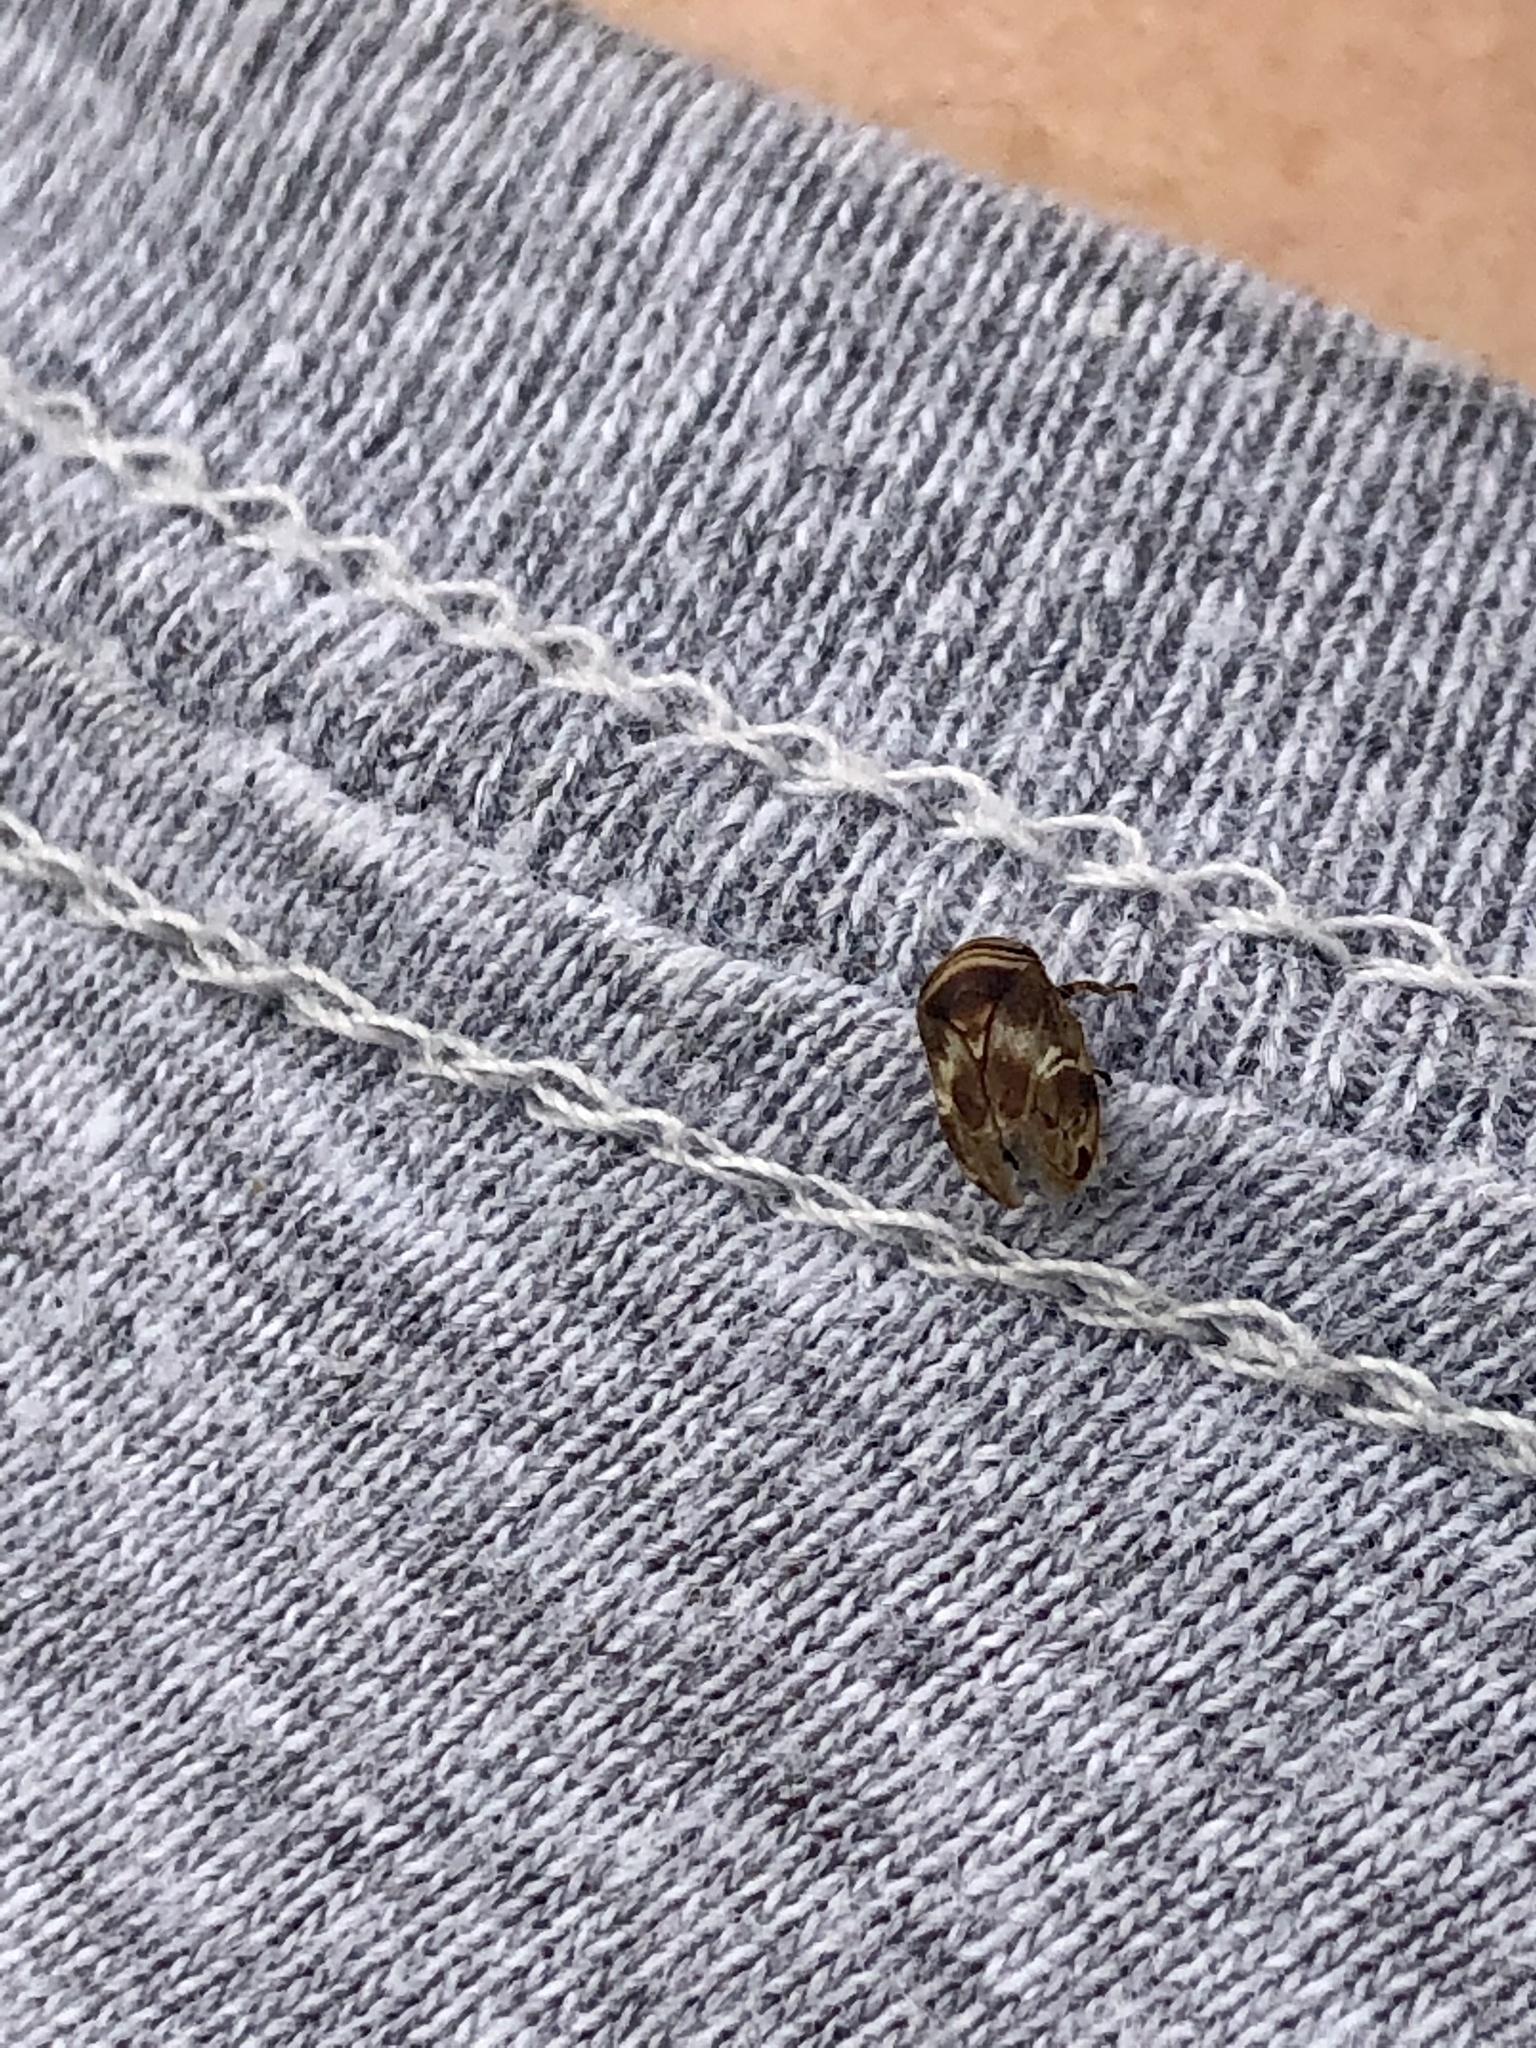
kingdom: Animalia
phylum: Arthropoda
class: Insecta
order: Hemiptera
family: Clastopteridae
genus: Clastoptera
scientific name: Clastoptera obtusa
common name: Alder spittlebug
